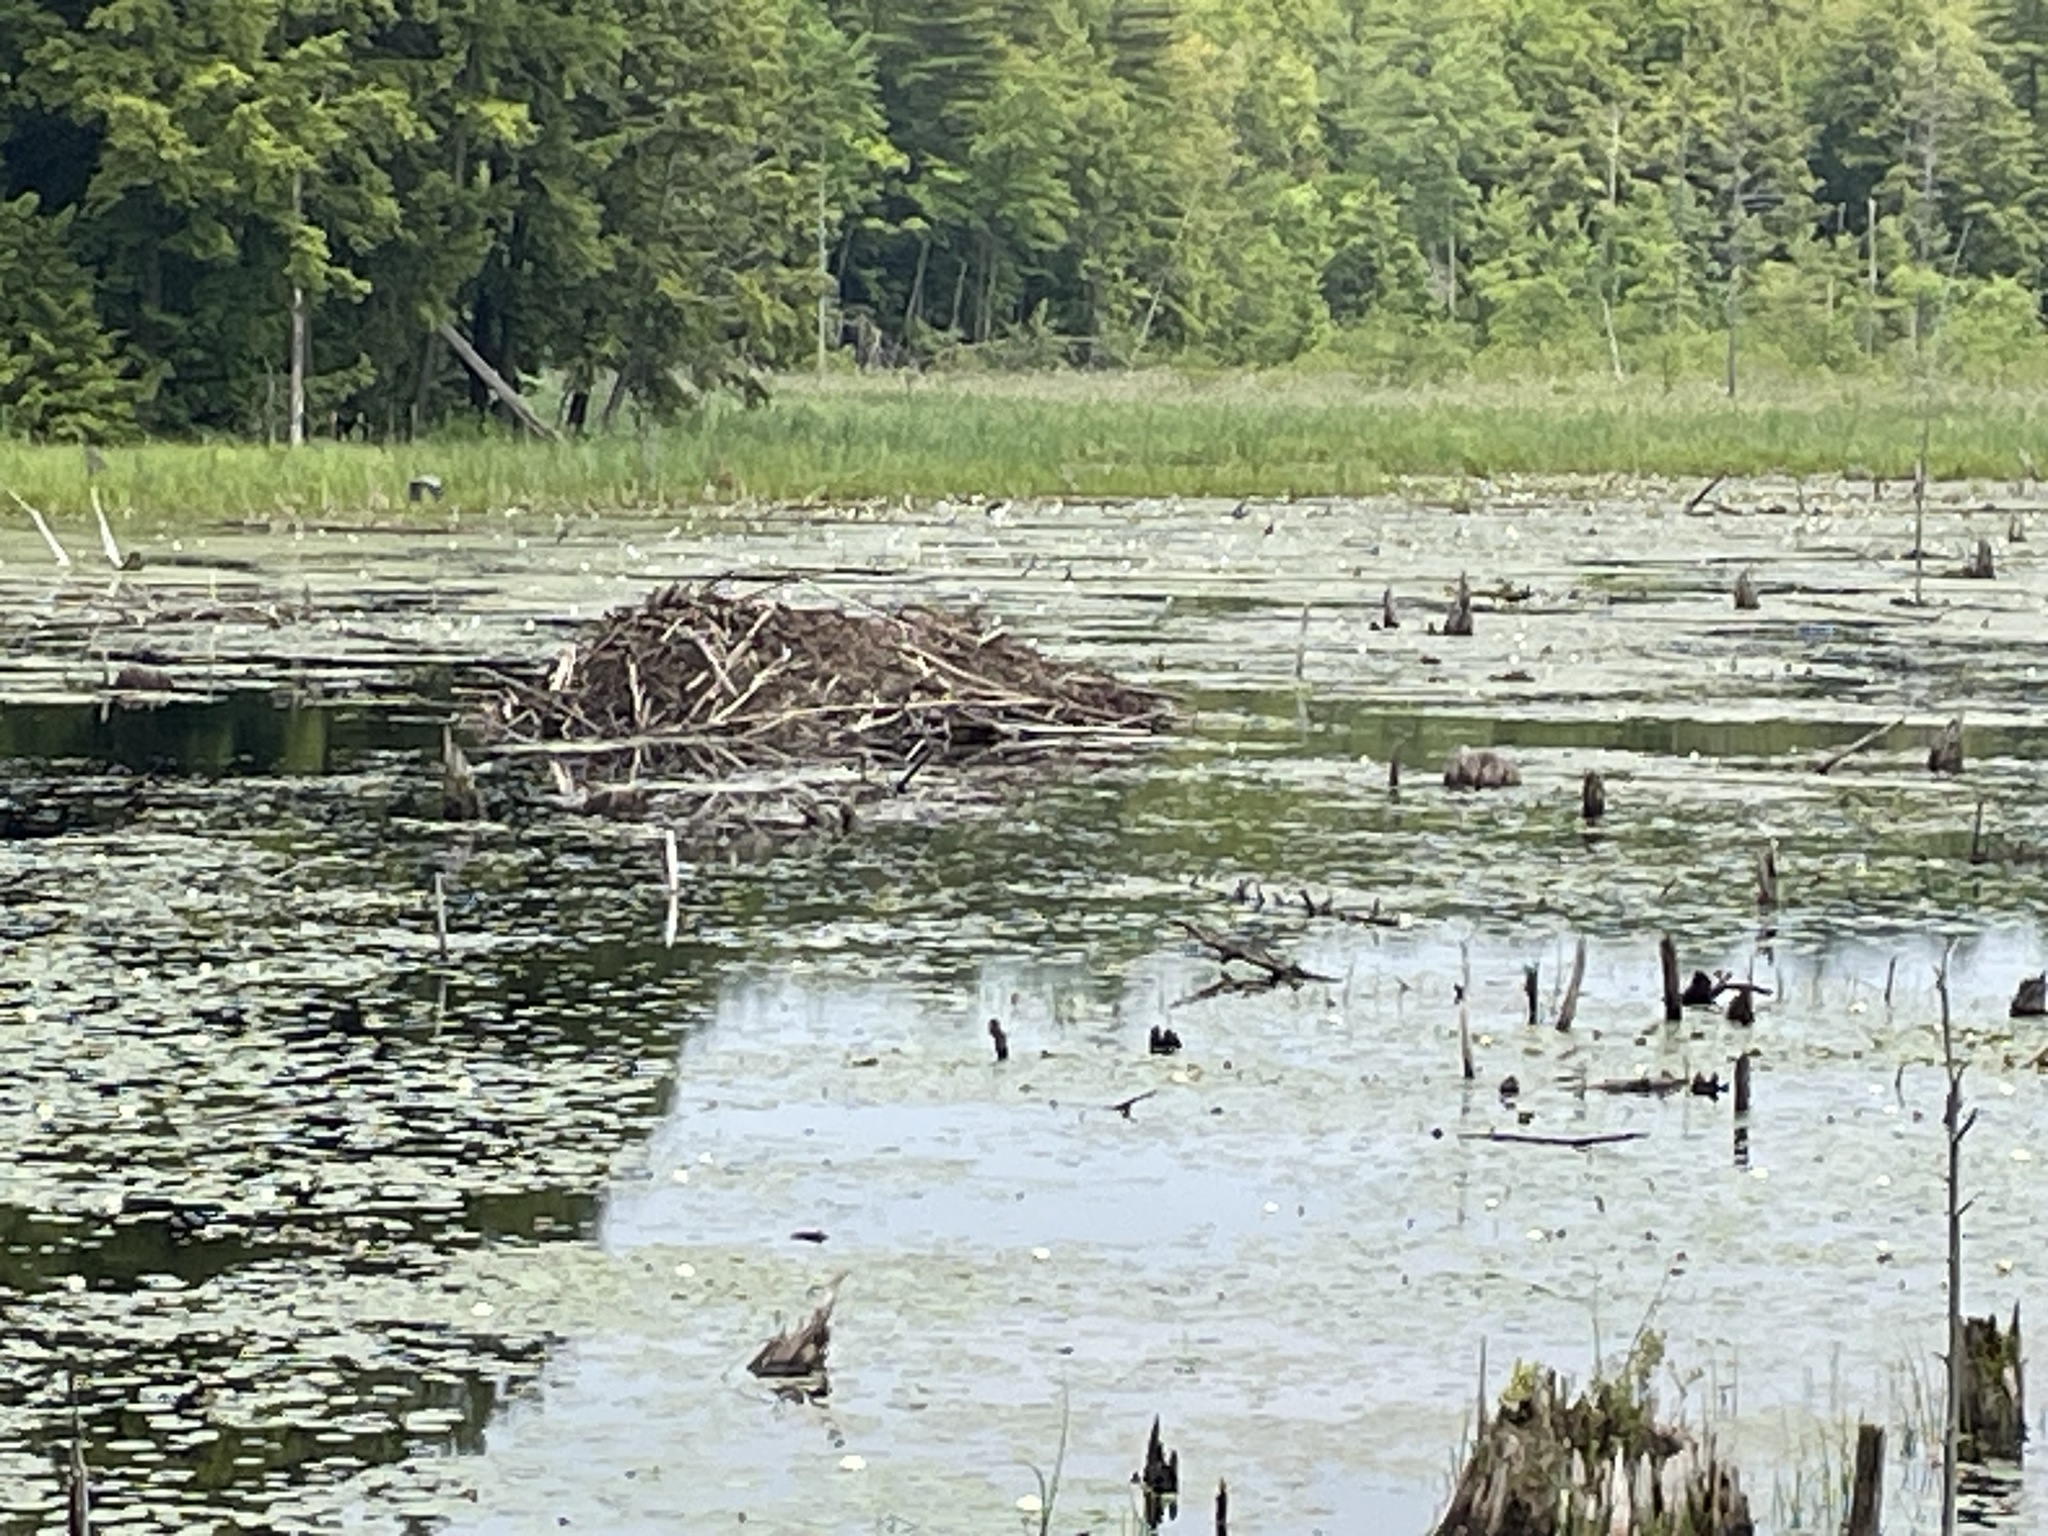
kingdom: Animalia
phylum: Chordata
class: Mammalia
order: Rodentia
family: Castoridae
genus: Castor
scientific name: Castor canadensis
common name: American beaver
